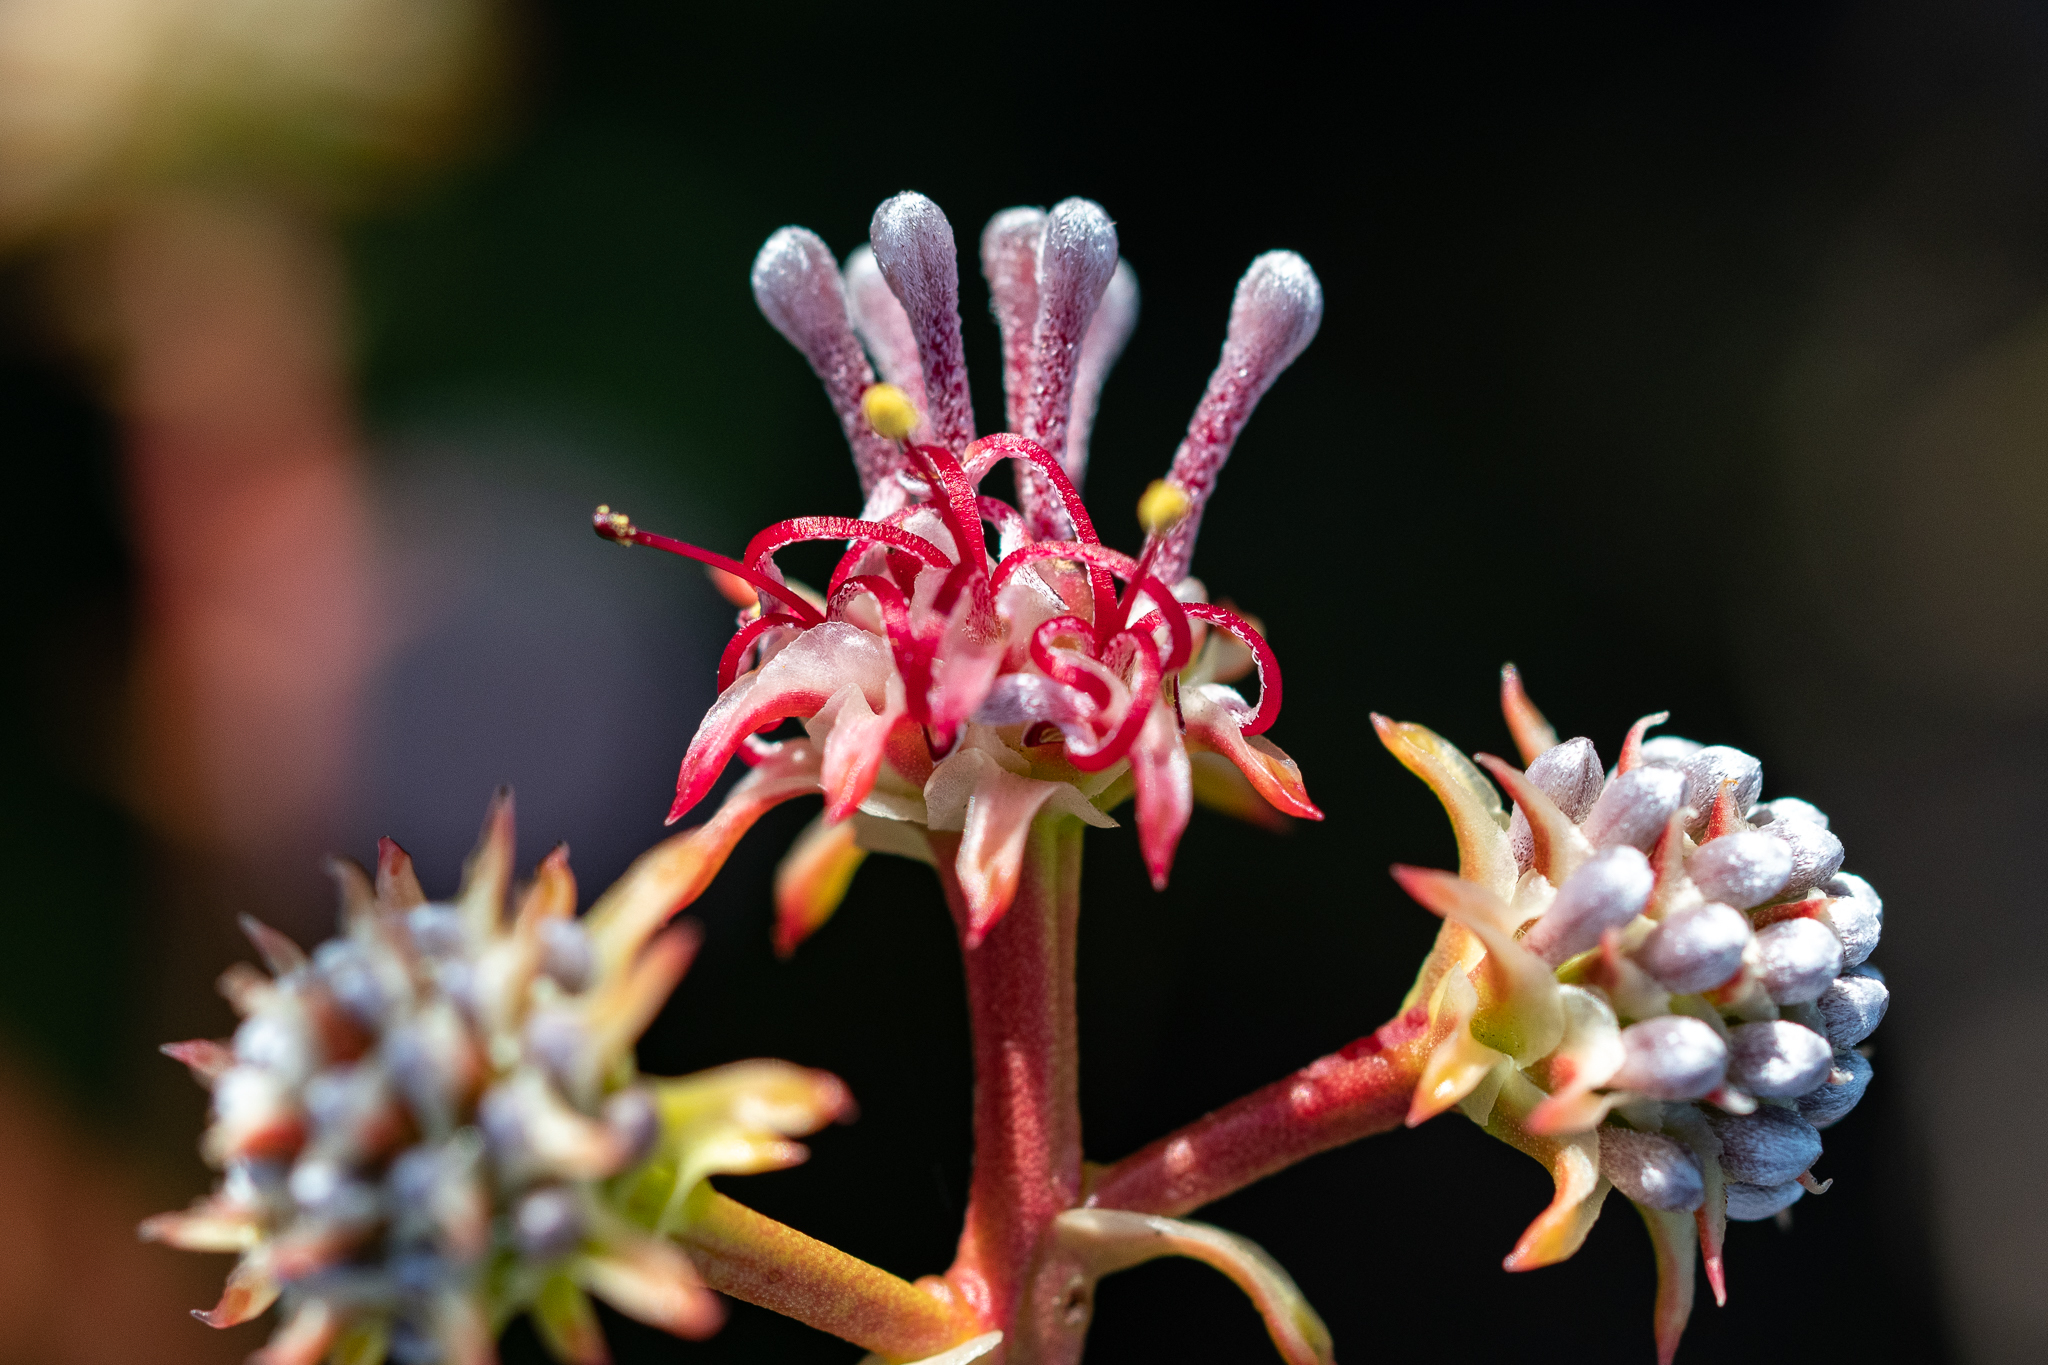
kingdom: Plantae
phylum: Tracheophyta
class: Magnoliopsida
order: Proteales
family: Proteaceae
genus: Serruria
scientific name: Serruria elongata
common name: Long-stalk spiderhead
